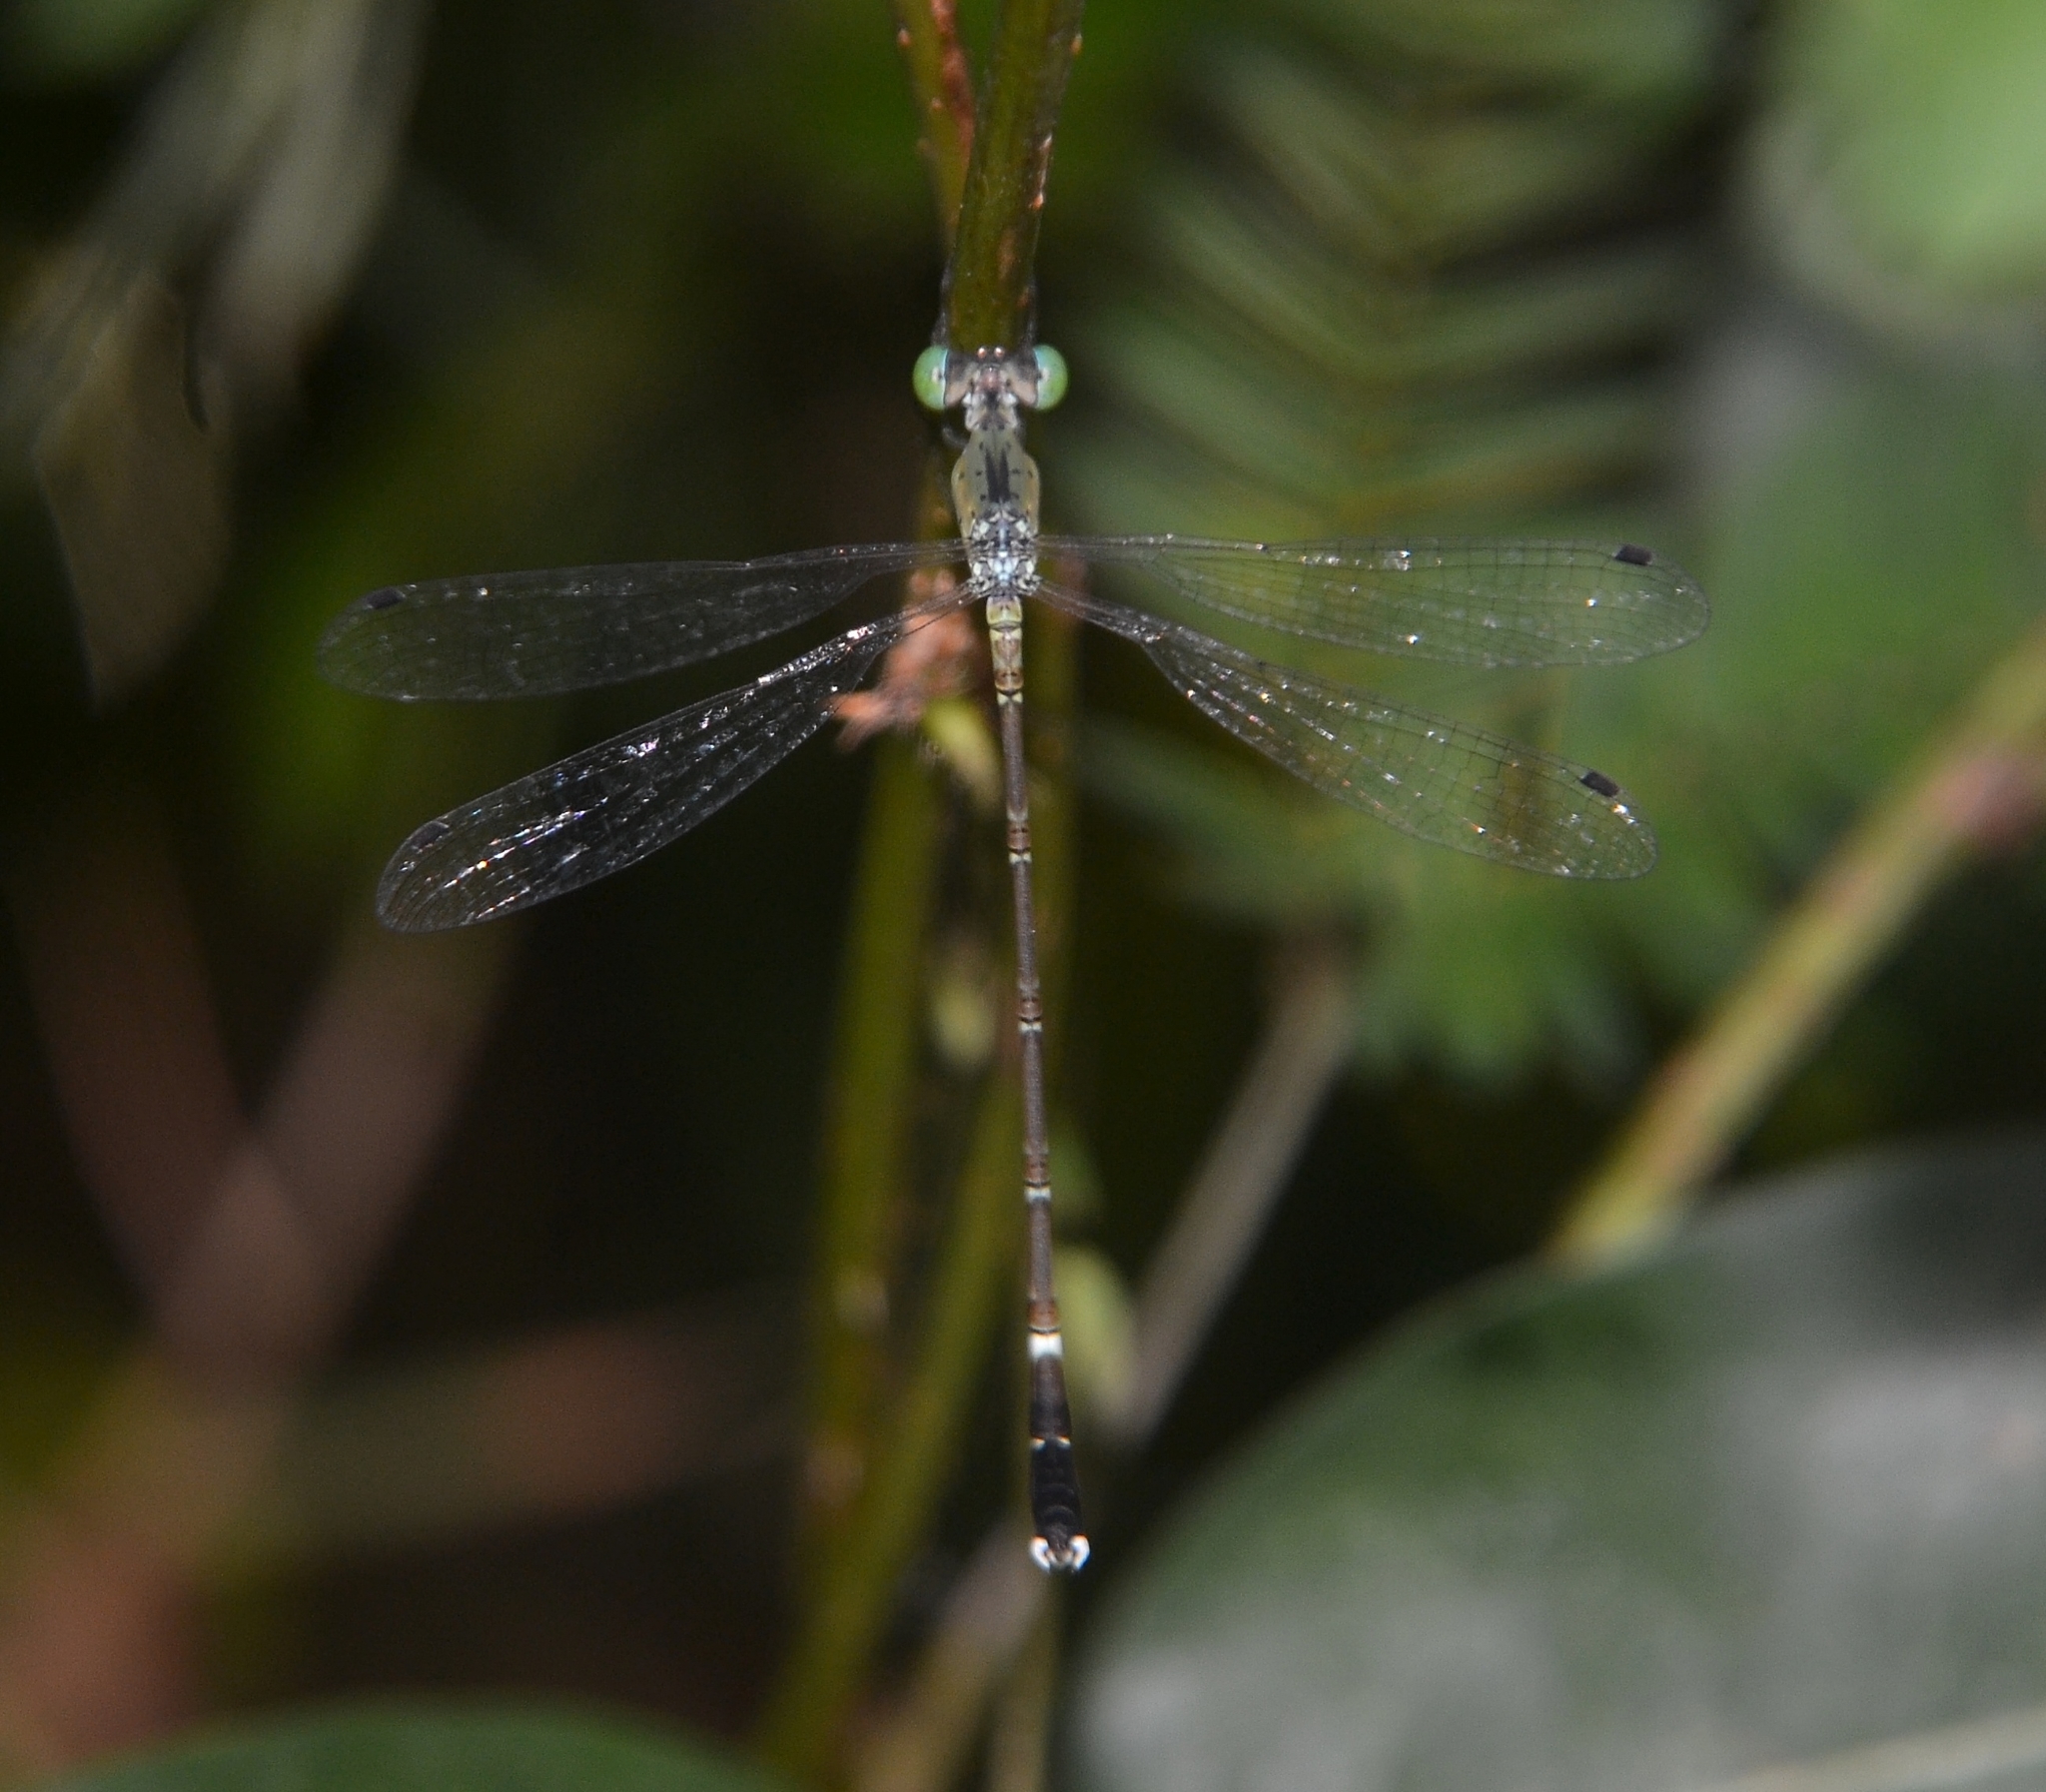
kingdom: Animalia
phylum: Arthropoda
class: Insecta
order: Odonata
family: Lestidae
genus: Platylestes
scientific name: Platylestes kirani
